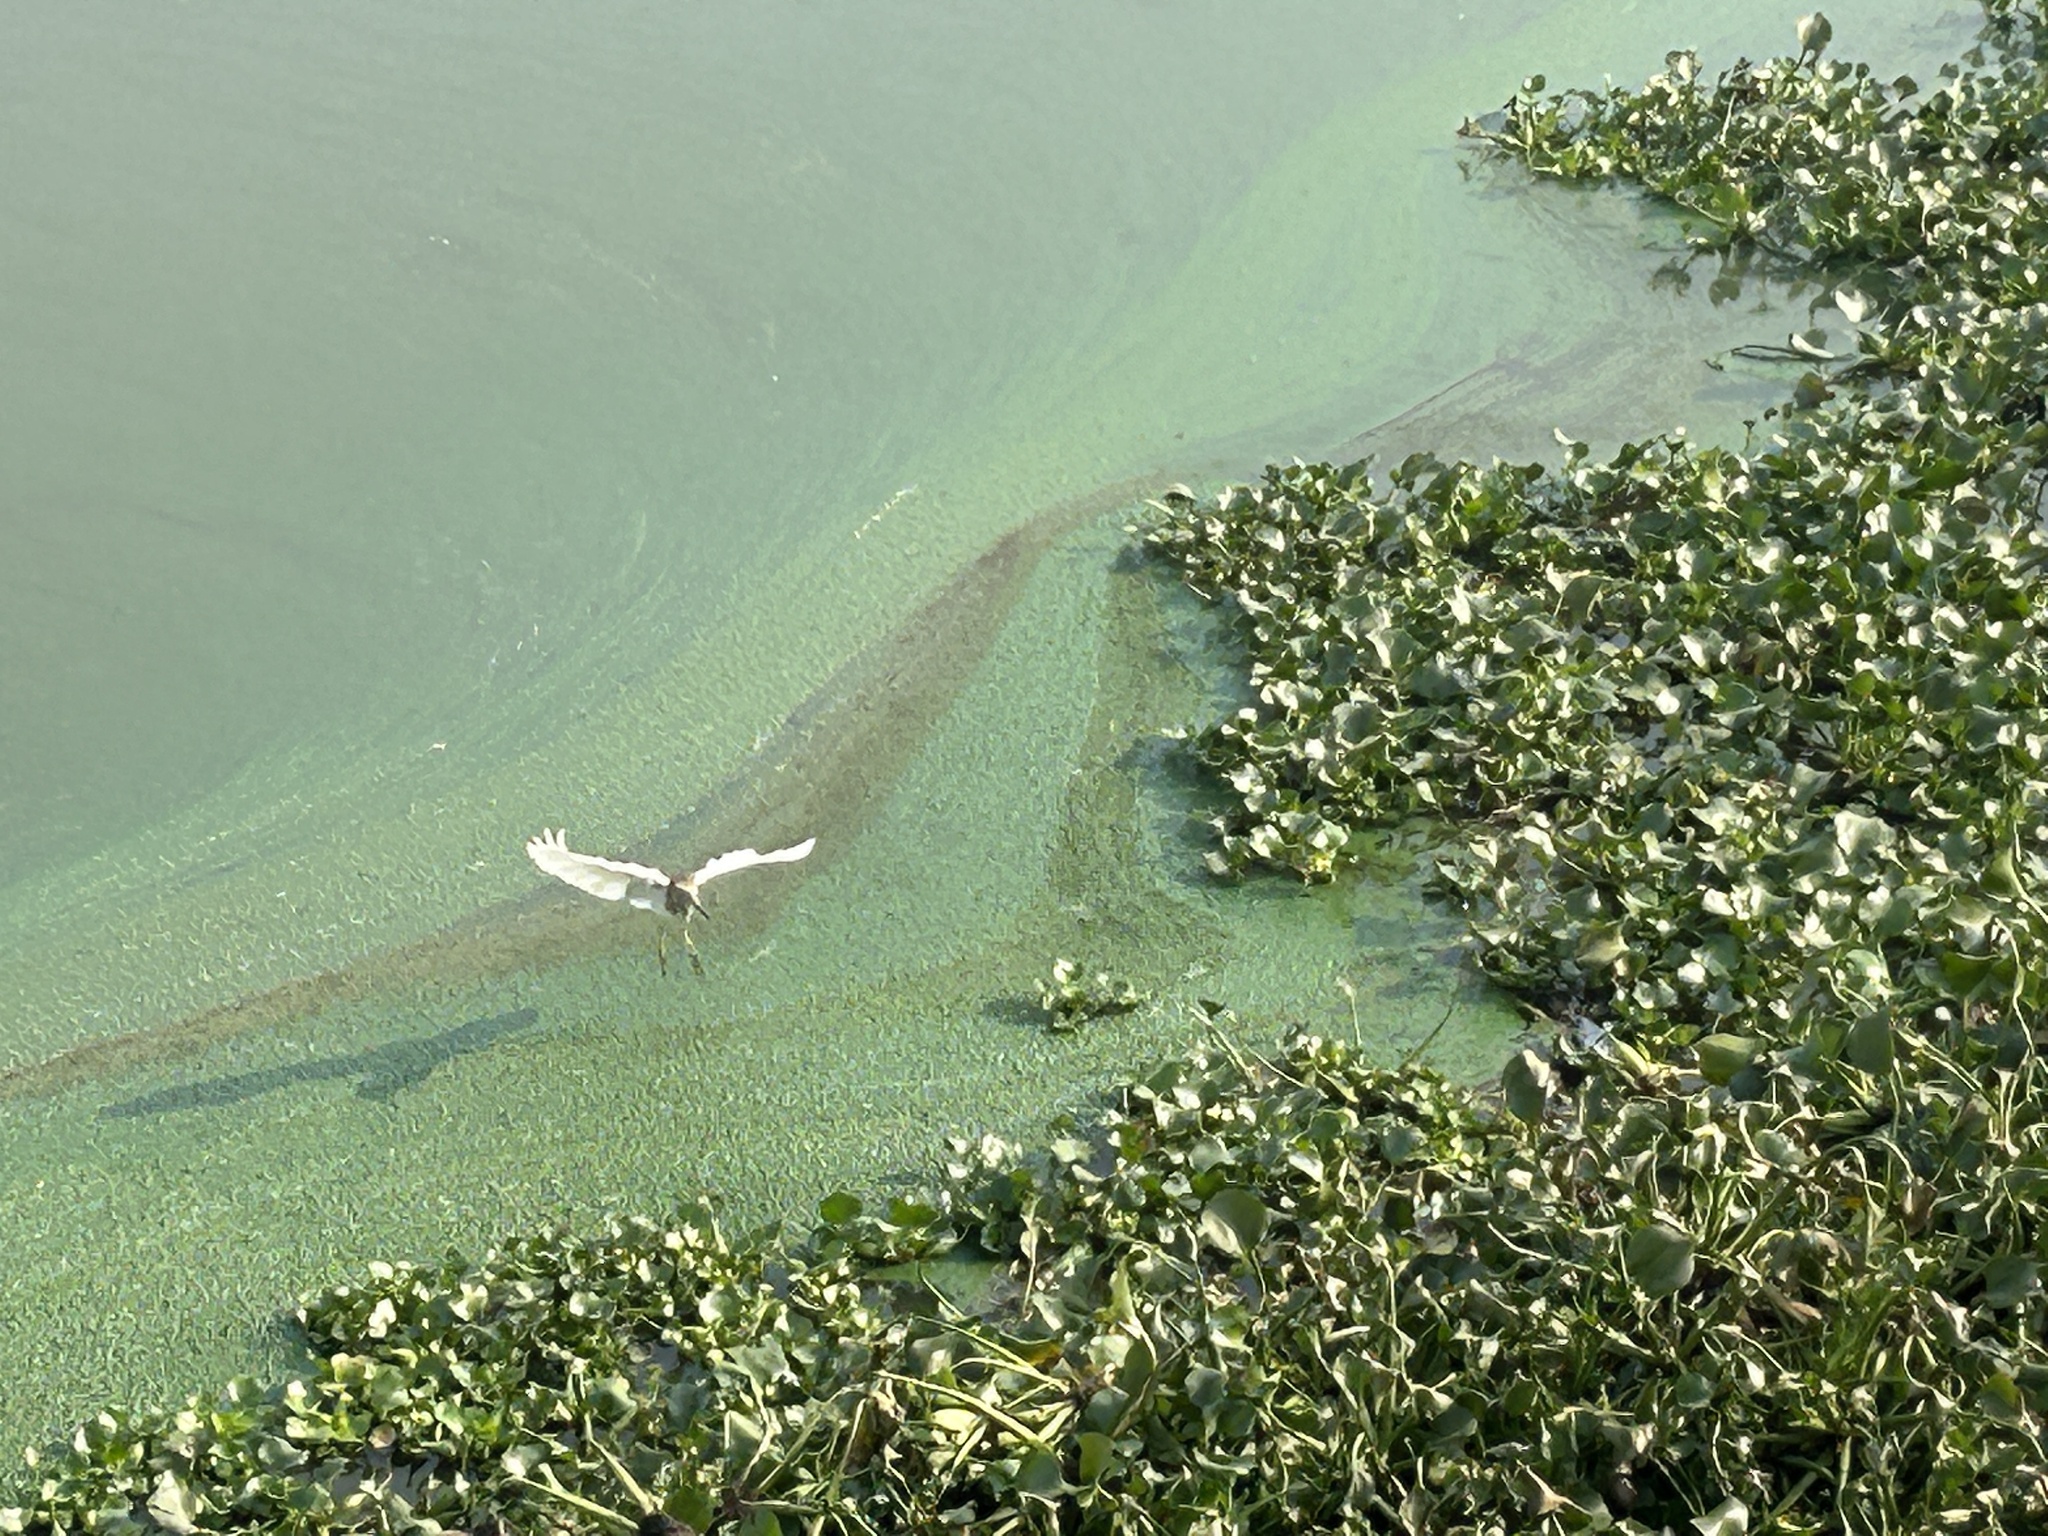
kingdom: Animalia
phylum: Chordata
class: Aves
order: Pelecaniformes
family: Ardeidae
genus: Ardeola
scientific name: Ardeola grayii
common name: Indian pond heron
